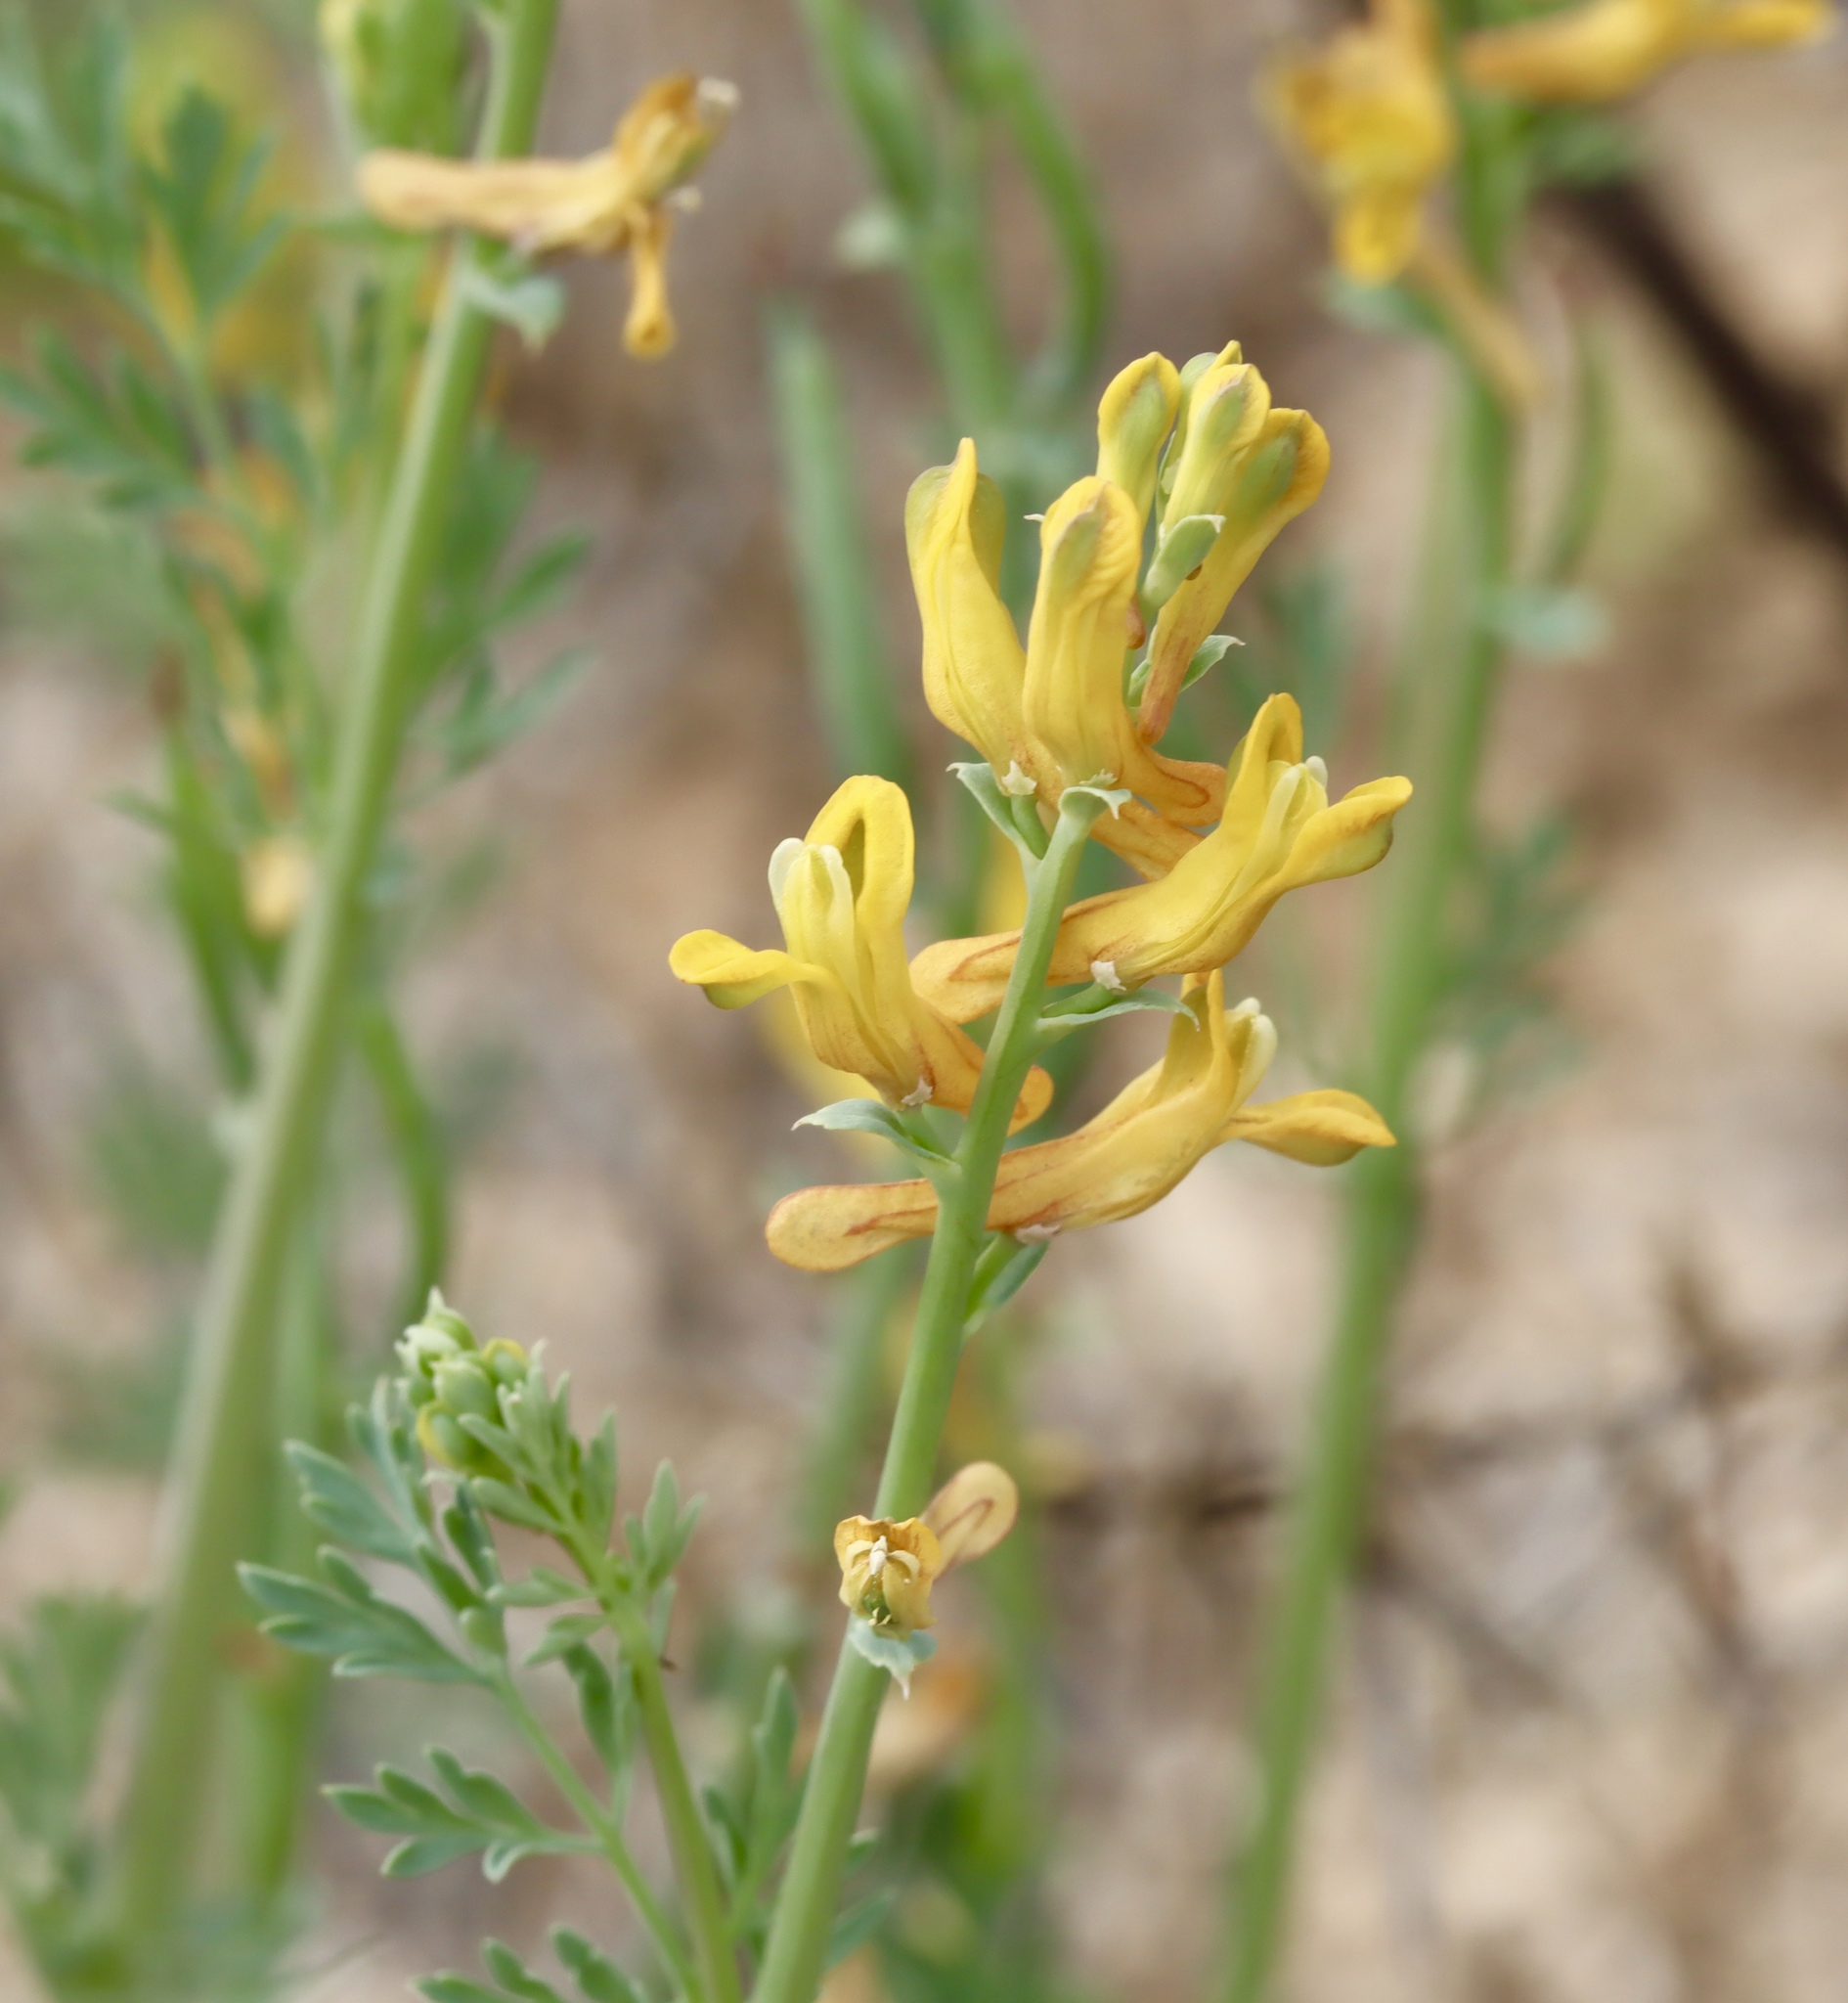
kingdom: Plantae
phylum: Tracheophyta
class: Magnoliopsida
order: Ranunculales
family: Papaveraceae
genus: Corydalis
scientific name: Corydalis aurea
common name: Golden corydalis
